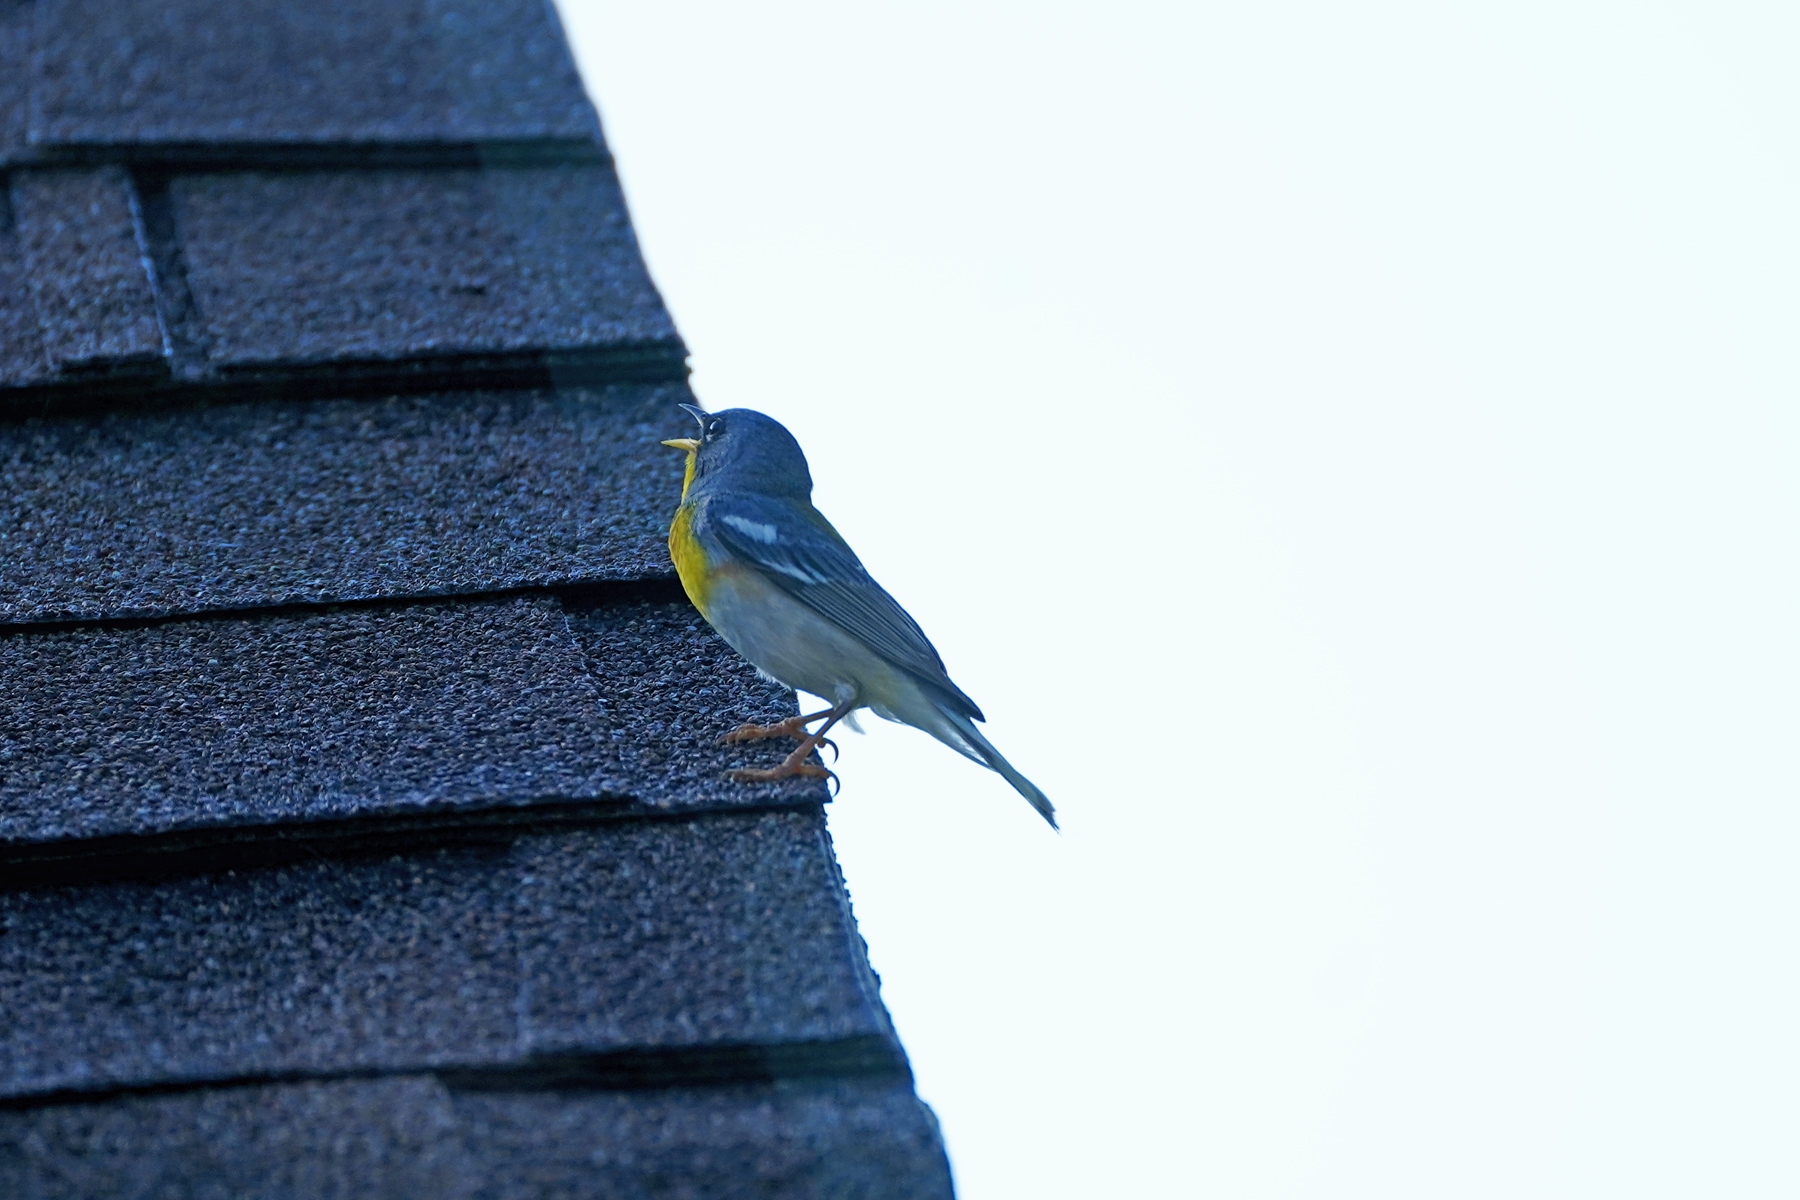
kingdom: Animalia
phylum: Chordata
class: Aves
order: Passeriformes
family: Parulidae
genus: Setophaga
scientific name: Setophaga americana
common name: Northern parula
